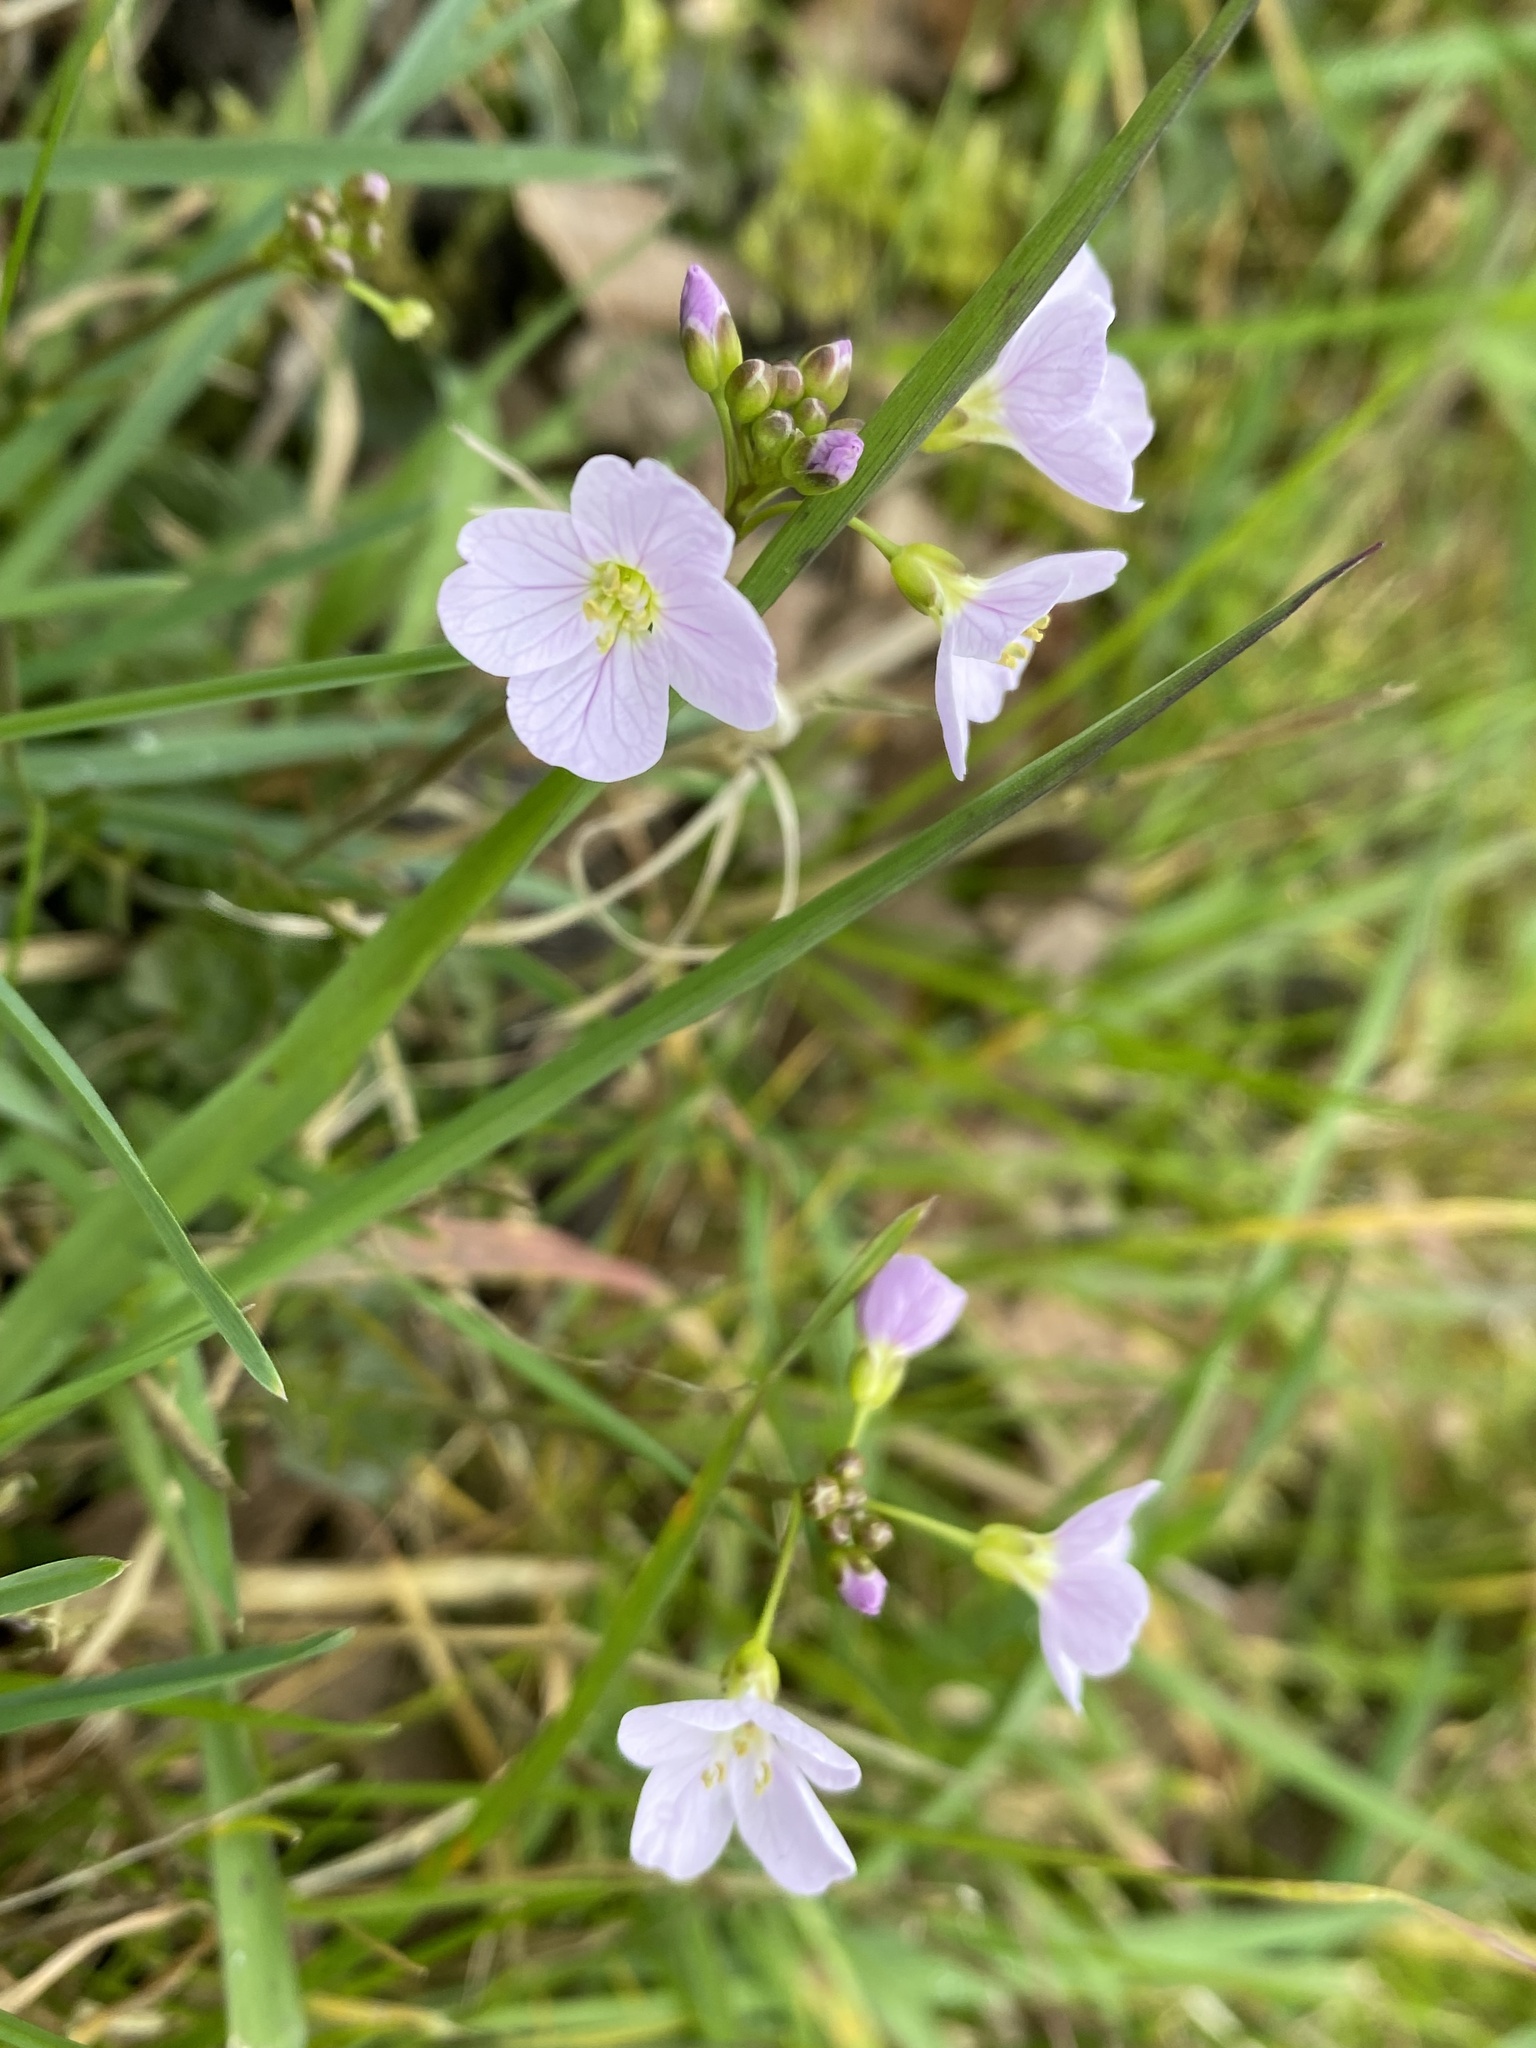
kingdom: Plantae
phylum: Tracheophyta
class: Magnoliopsida
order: Brassicales
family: Brassicaceae
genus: Cardamine
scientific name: Cardamine pratensis
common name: Cuckoo flower
